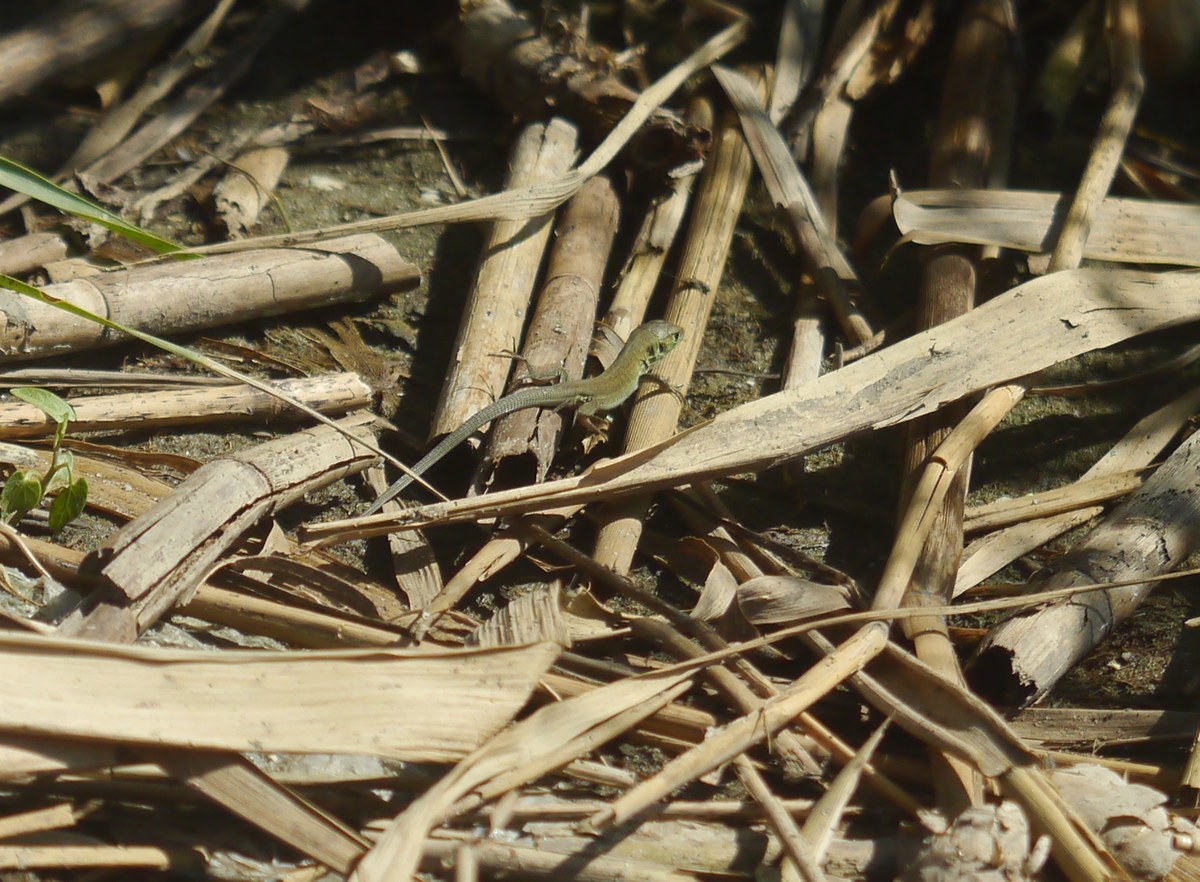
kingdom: Animalia
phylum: Chordata
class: Squamata
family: Lacertidae
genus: Lacerta
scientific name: Lacerta viridis
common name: European green lizard
